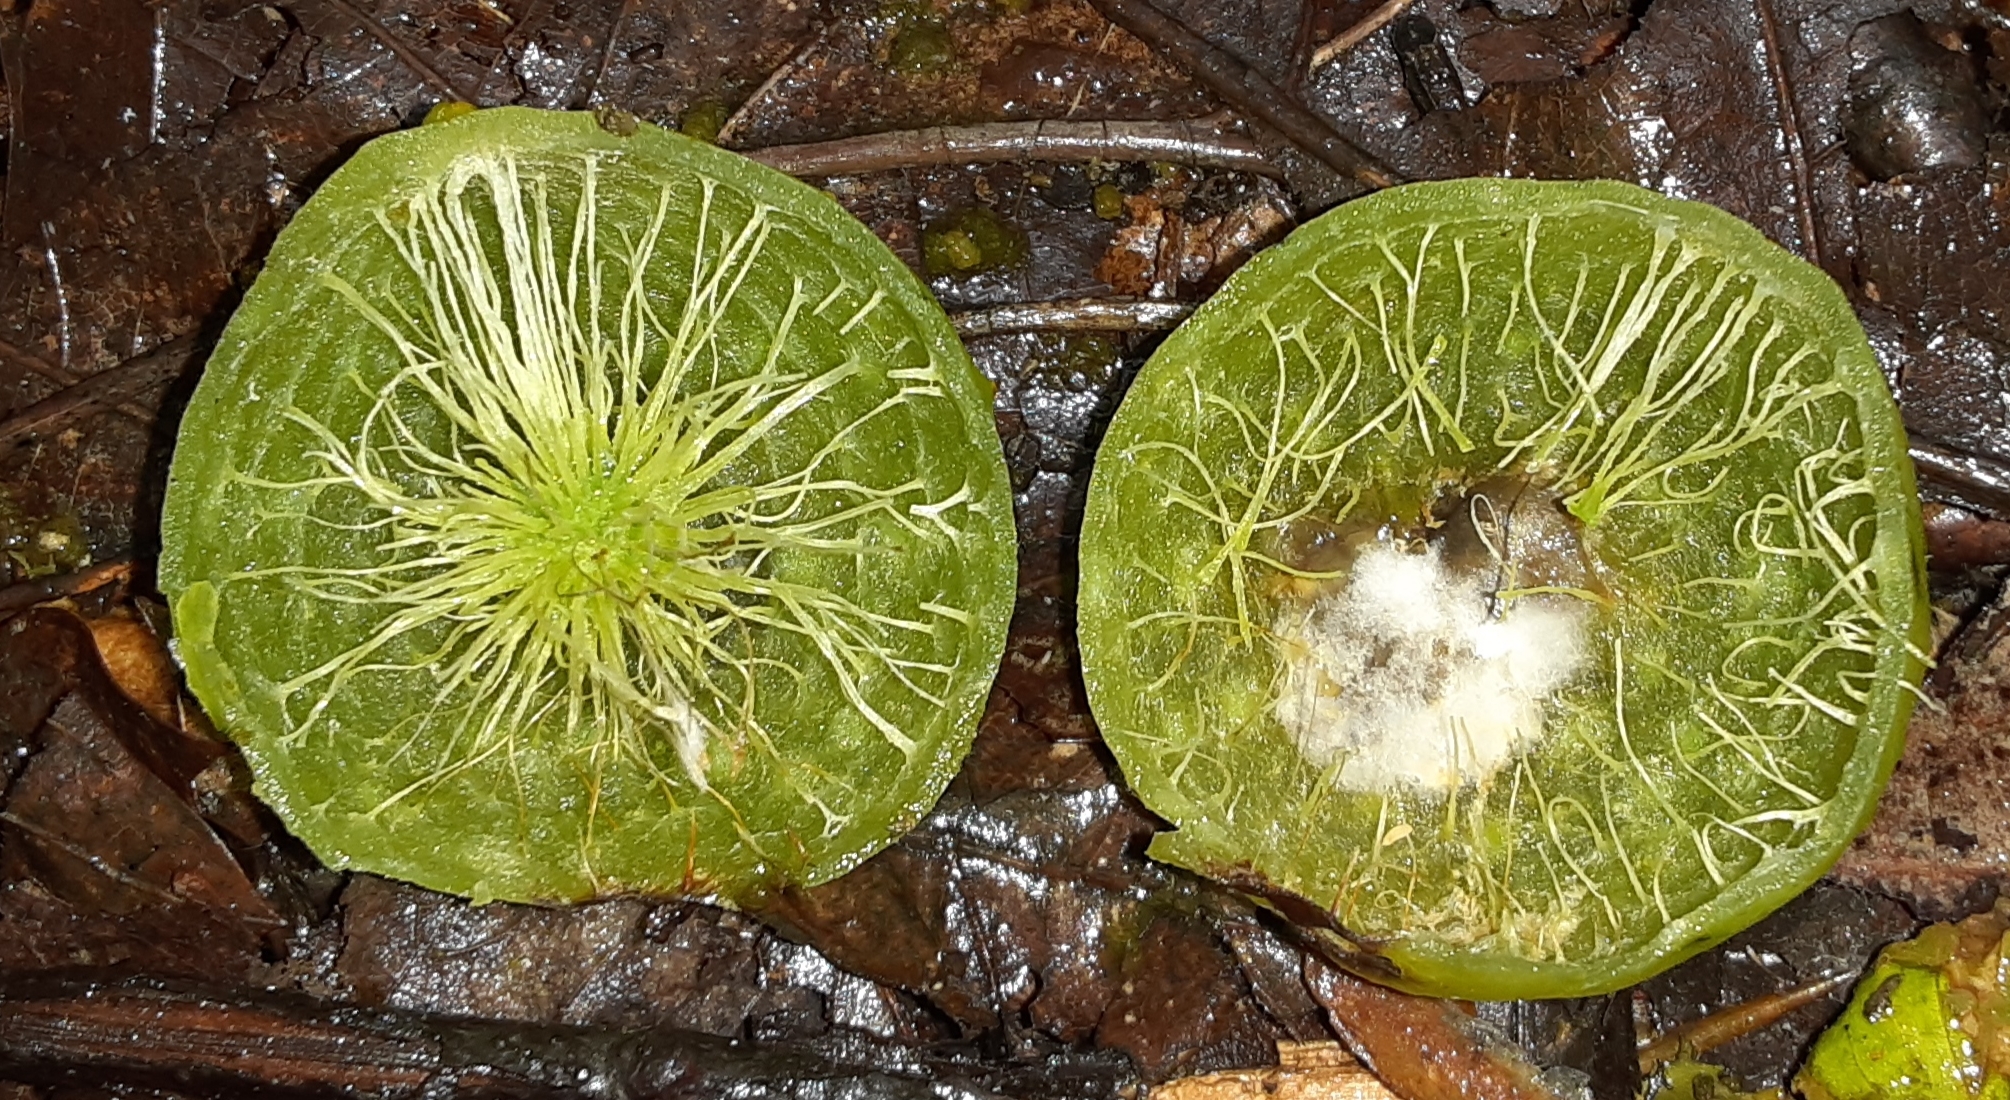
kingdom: Animalia
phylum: Arthropoda
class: Insecta
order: Hymenoptera
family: Cynipidae
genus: Amphibolips
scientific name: Amphibolips
